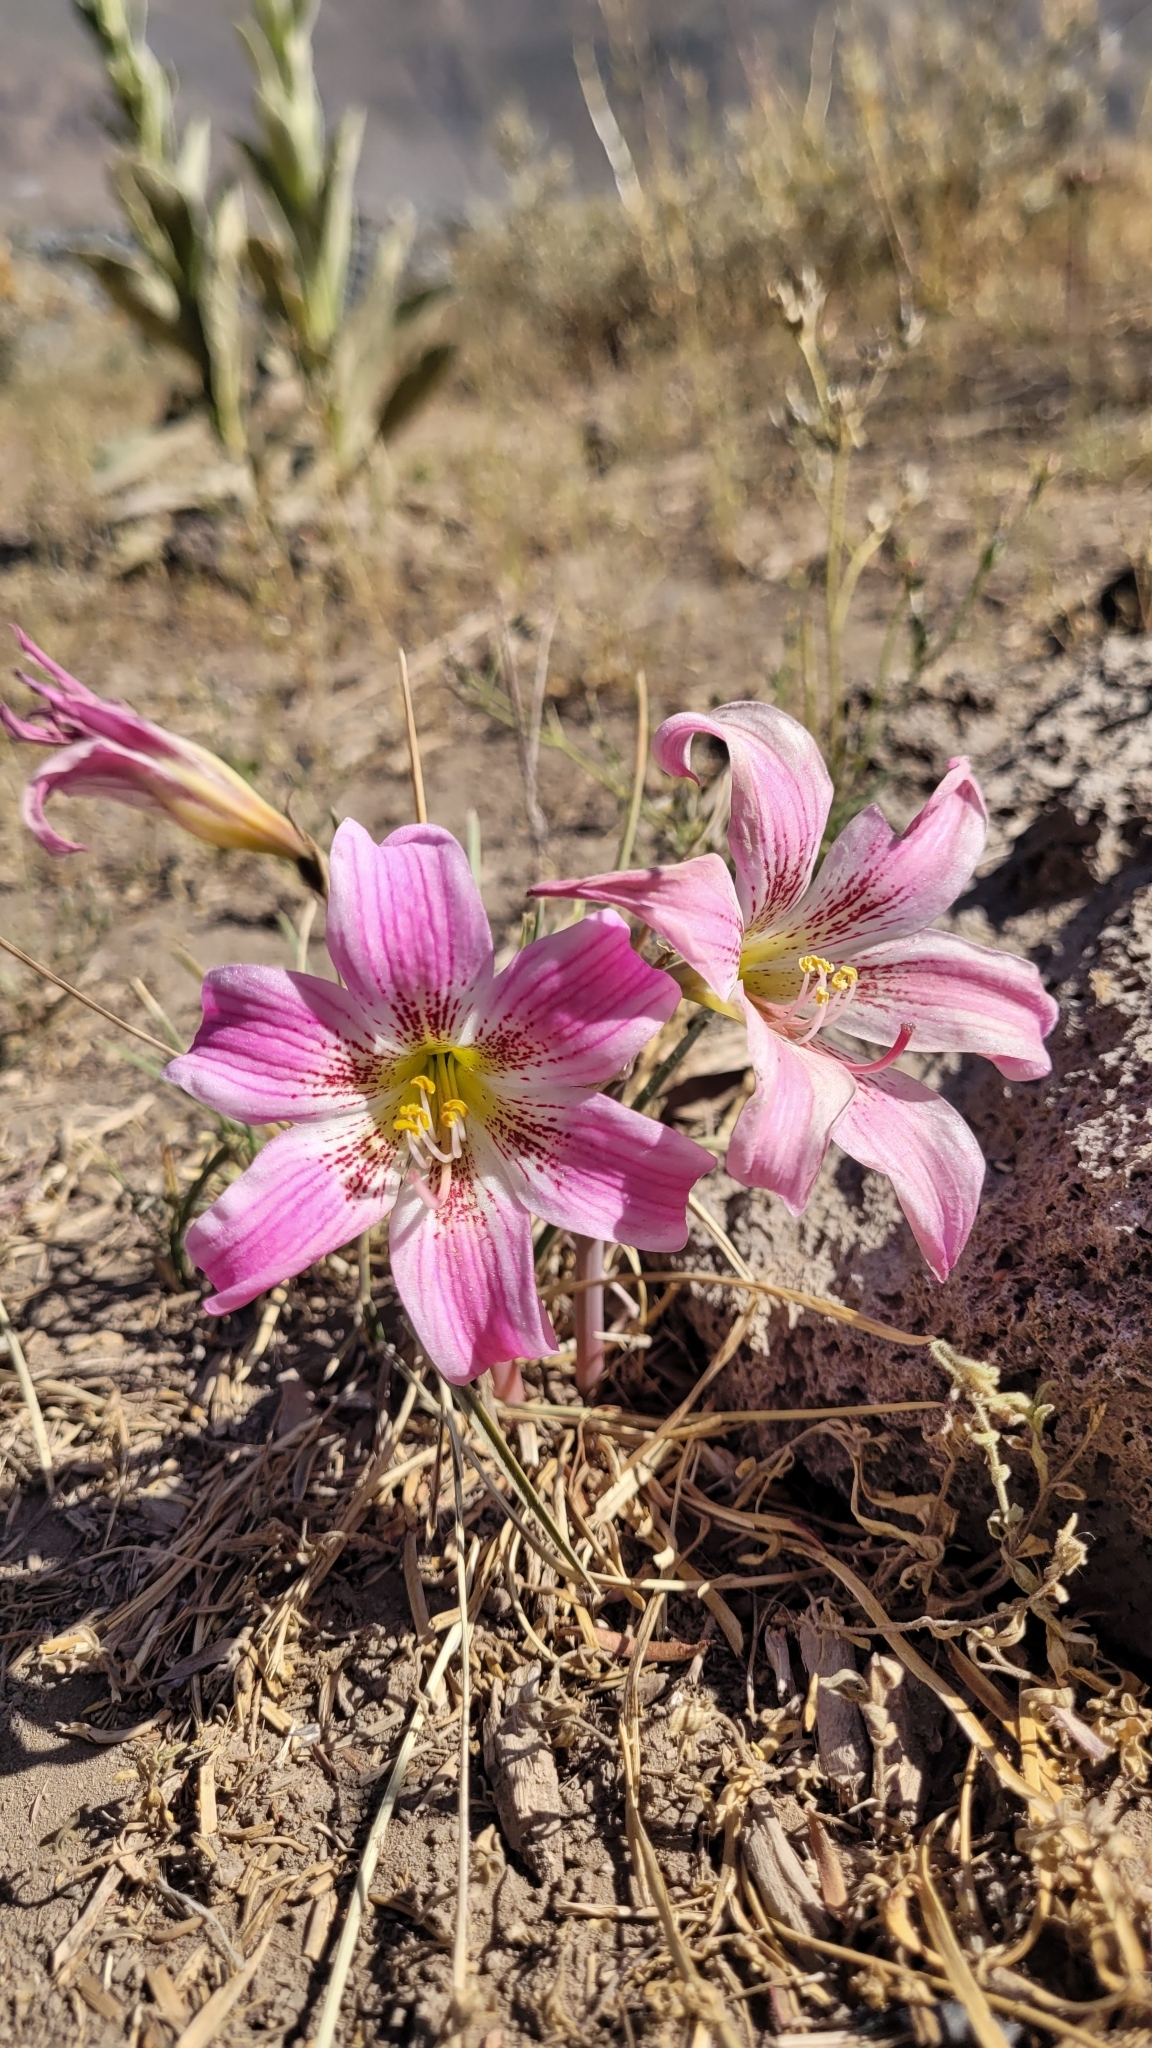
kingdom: Plantae
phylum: Tracheophyta
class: Liliopsida
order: Asparagales
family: Amaryllidaceae
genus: Rhodolirium
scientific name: Rhodolirium montanum
